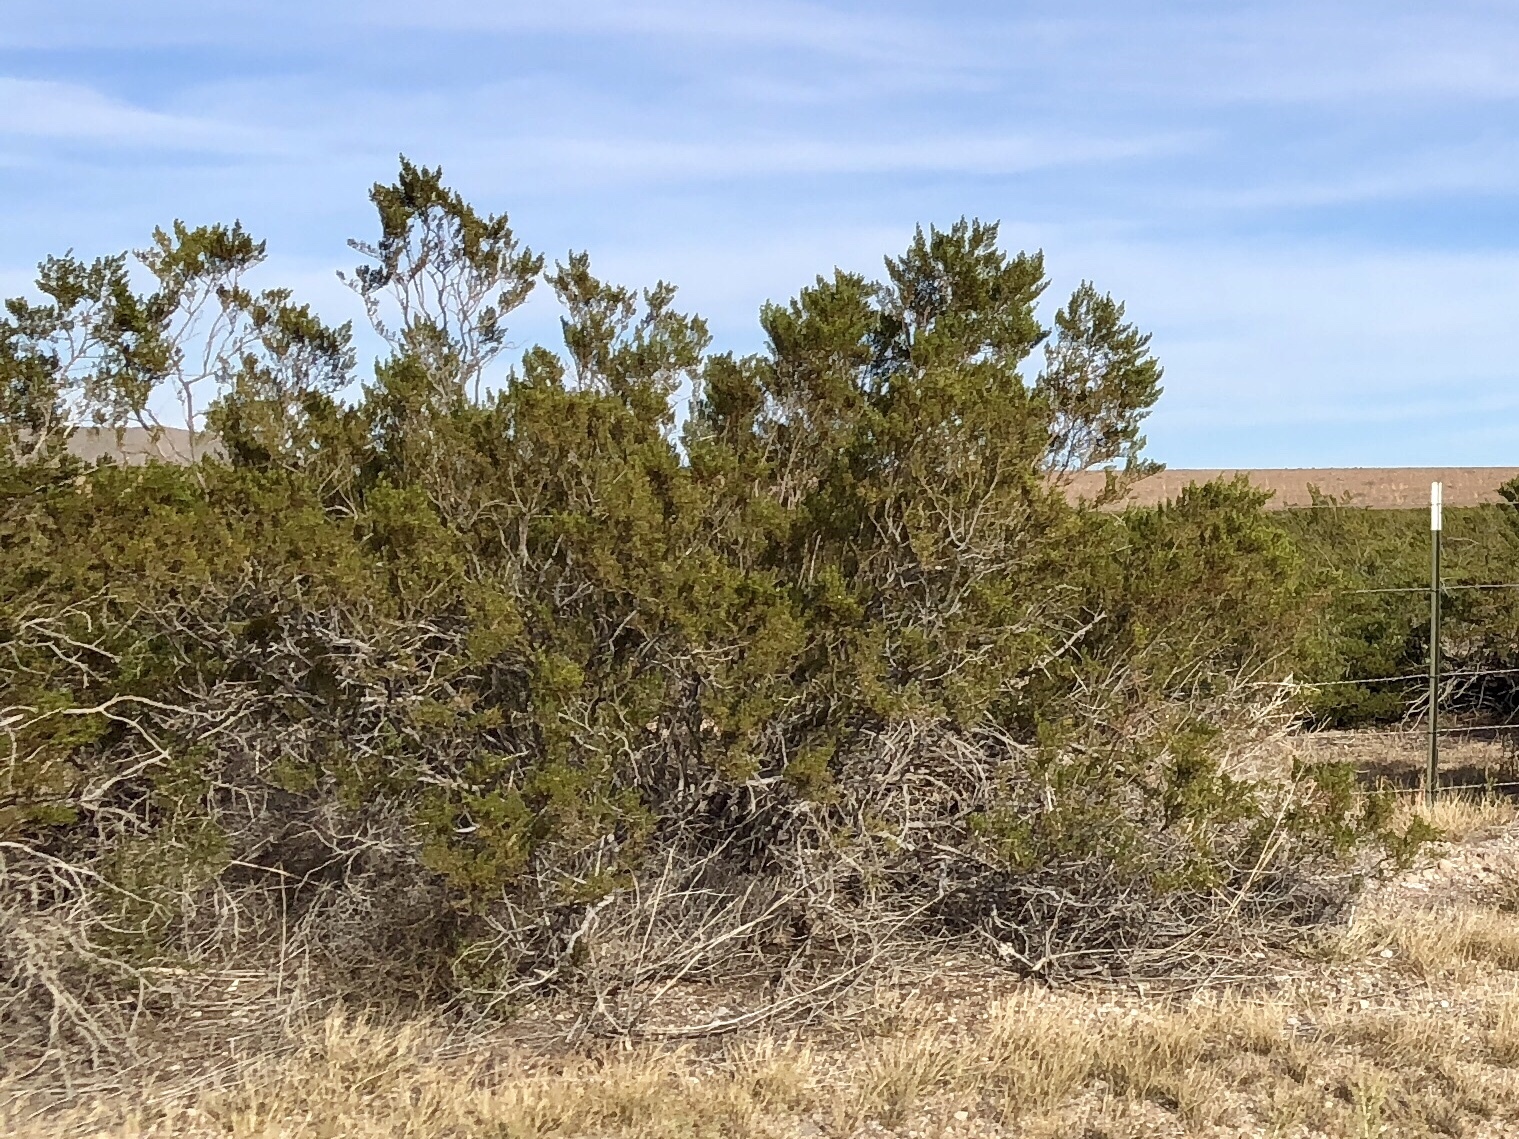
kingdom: Plantae
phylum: Tracheophyta
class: Magnoliopsida
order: Zygophyllales
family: Zygophyllaceae
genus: Larrea
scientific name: Larrea tridentata
